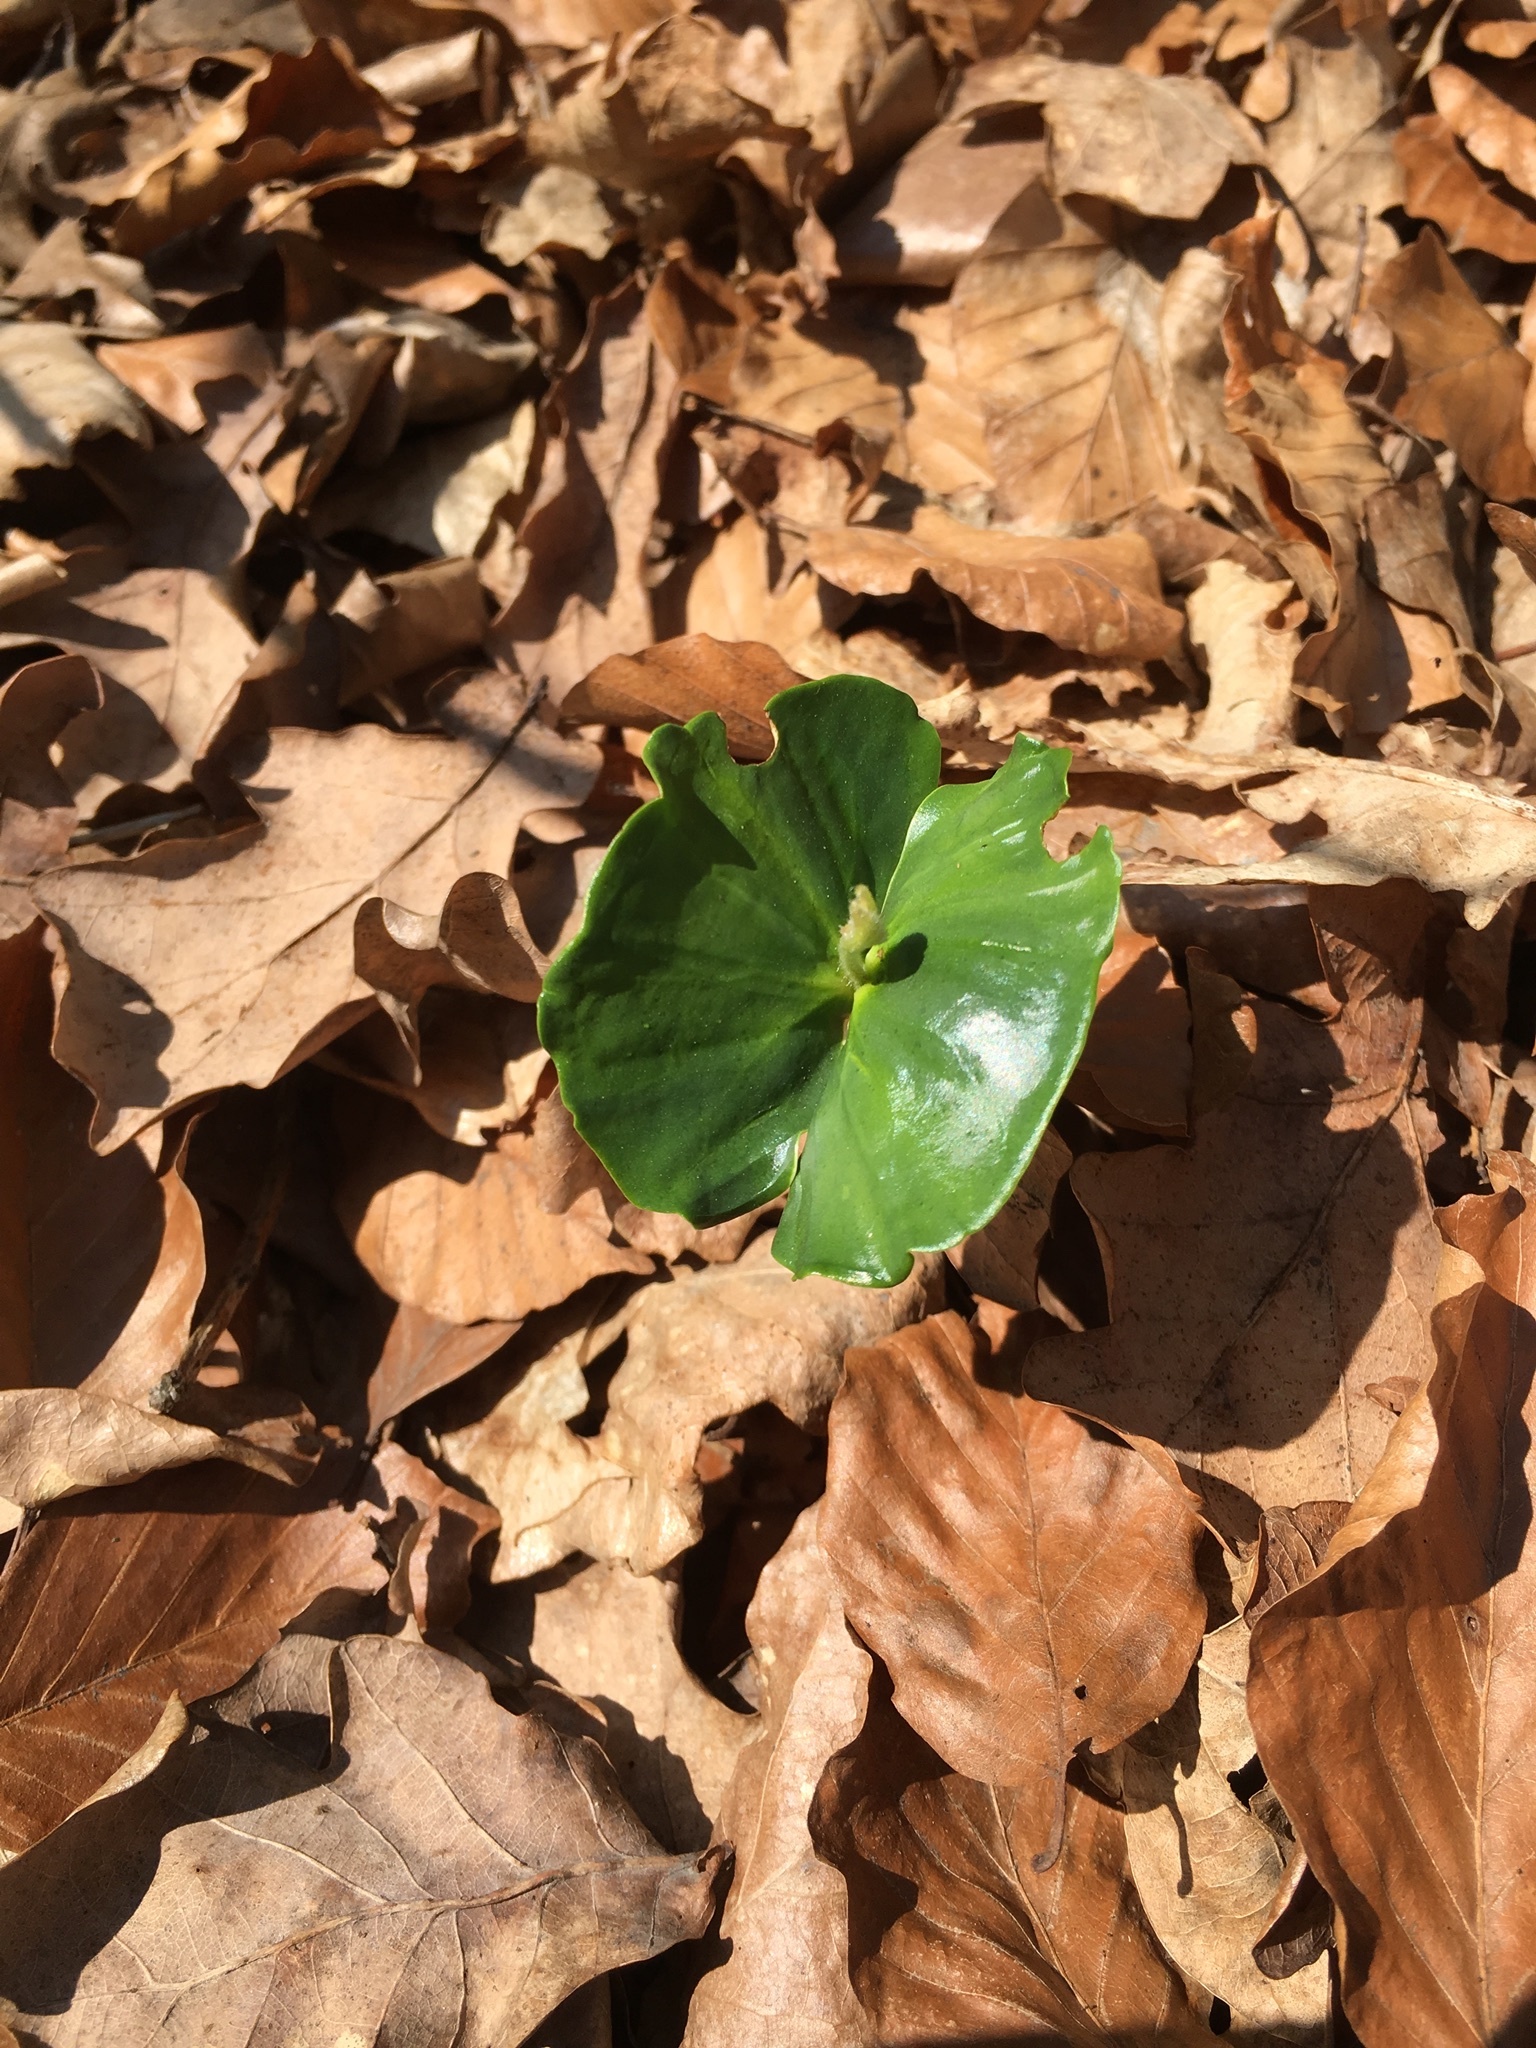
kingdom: Plantae
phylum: Tracheophyta
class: Magnoliopsida
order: Fagales
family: Fagaceae
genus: Fagus
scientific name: Fagus sylvatica
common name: Beech
